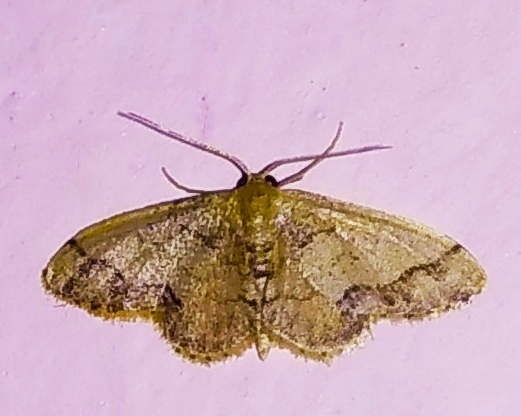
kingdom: Animalia
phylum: Arthropoda
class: Insecta
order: Lepidoptera
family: Geometridae
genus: Idaea
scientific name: Idaea chotaria
